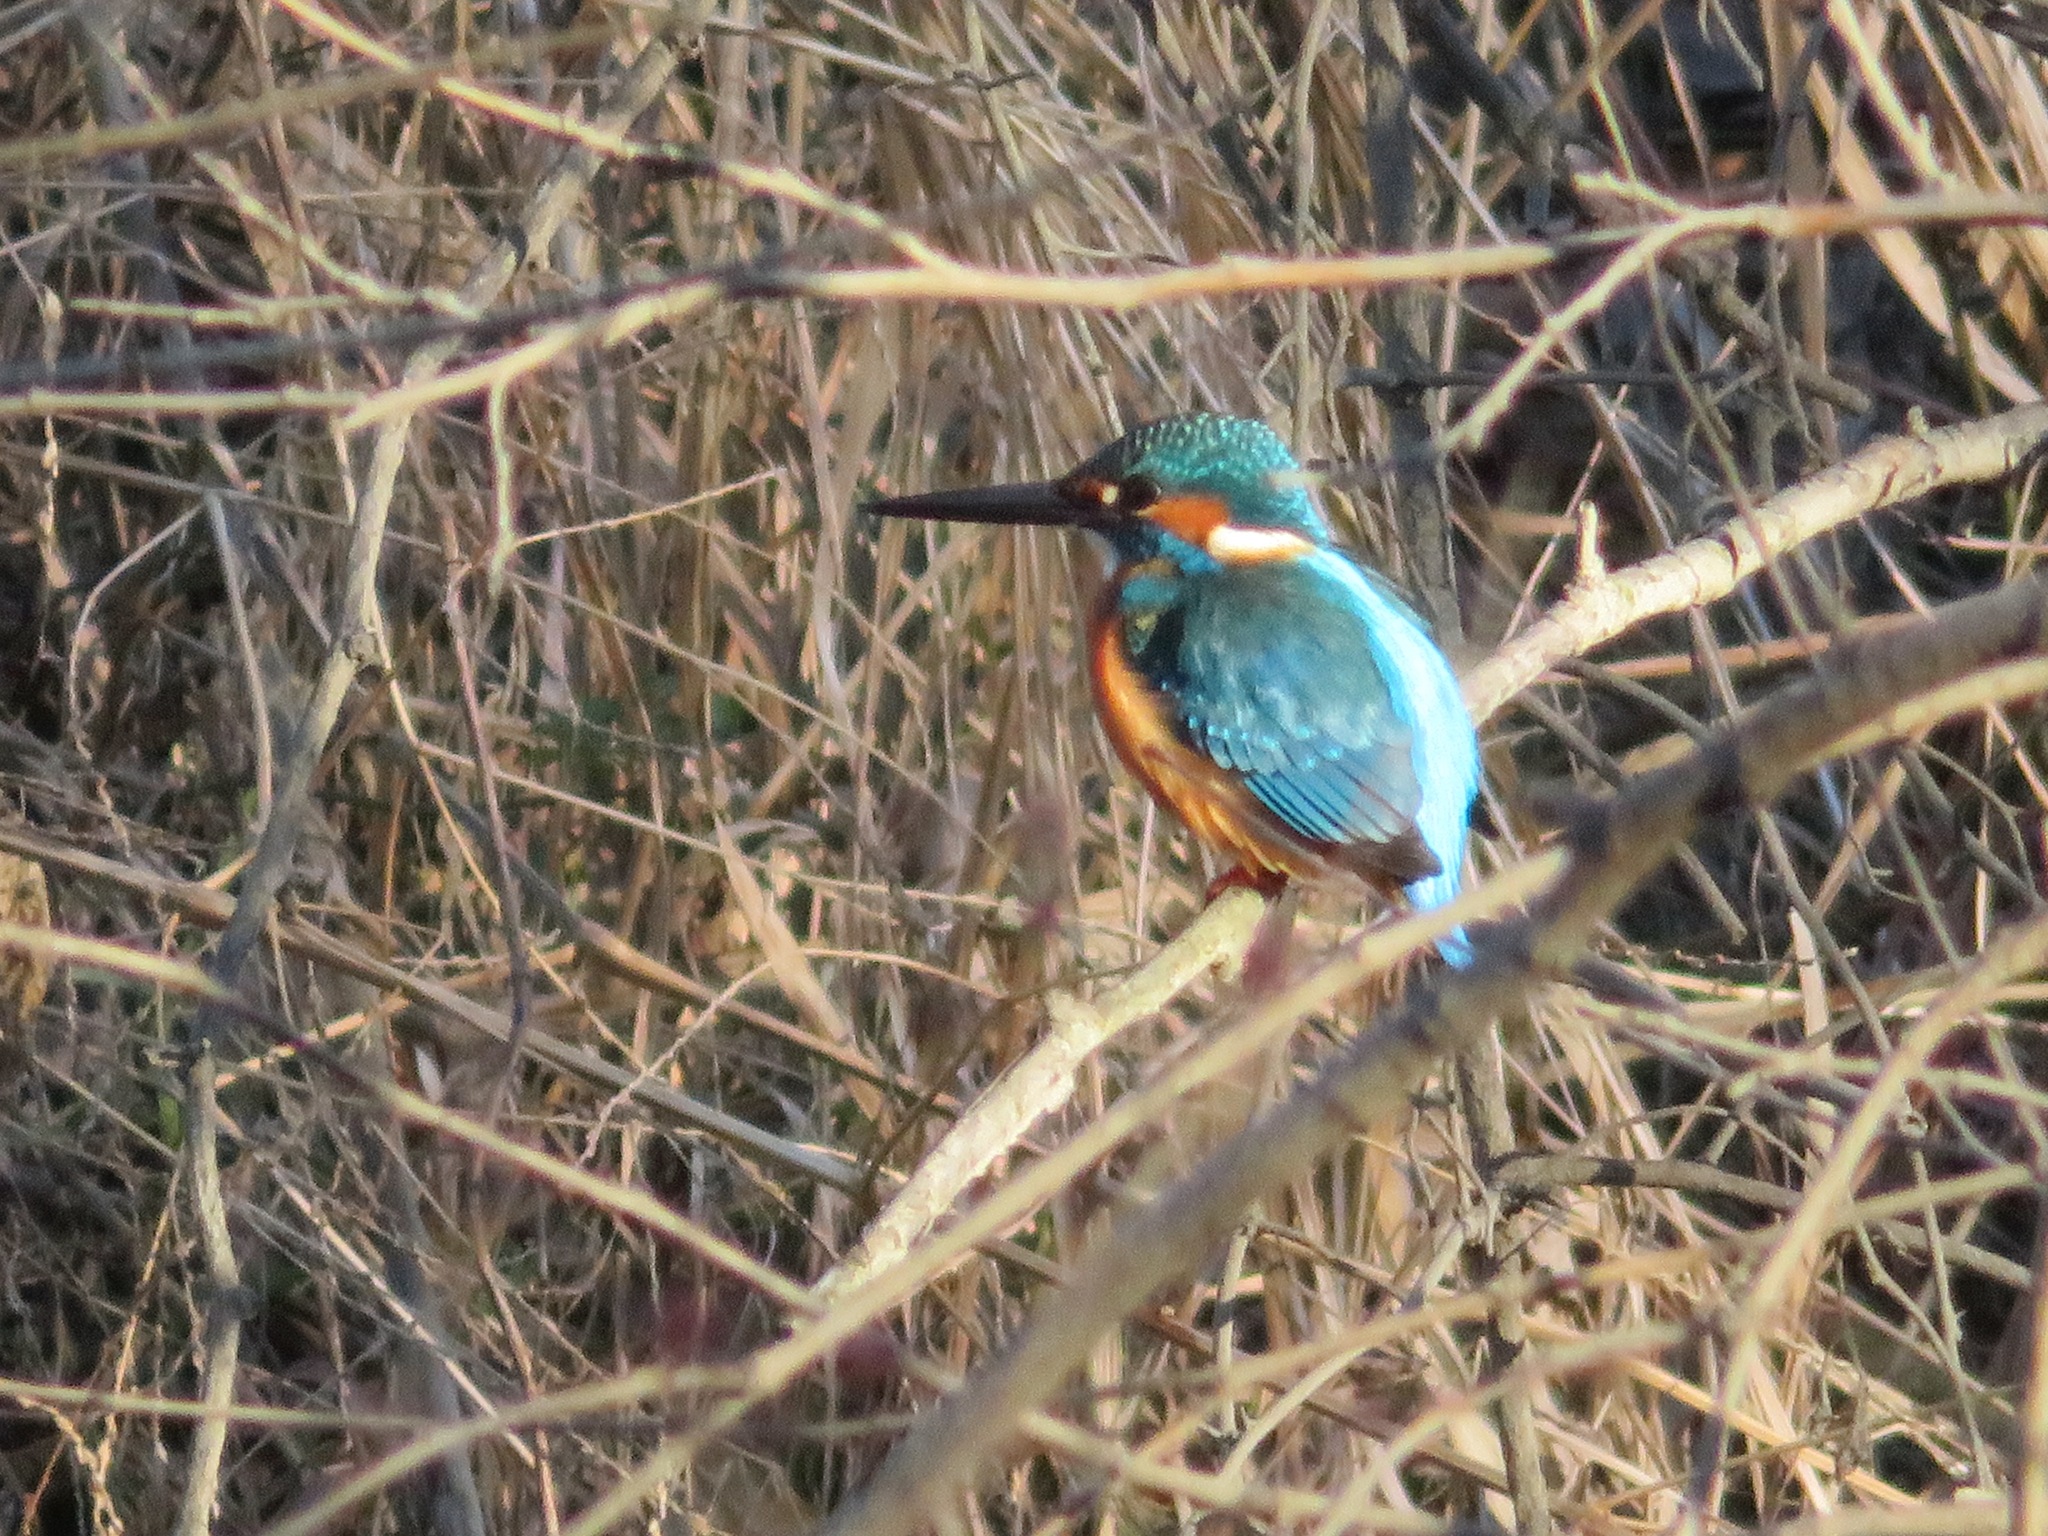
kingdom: Animalia
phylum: Chordata
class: Aves
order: Coraciiformes
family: Alcedinidae
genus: Alcedo
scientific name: Alcedo atthis
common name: Common kingfisher
